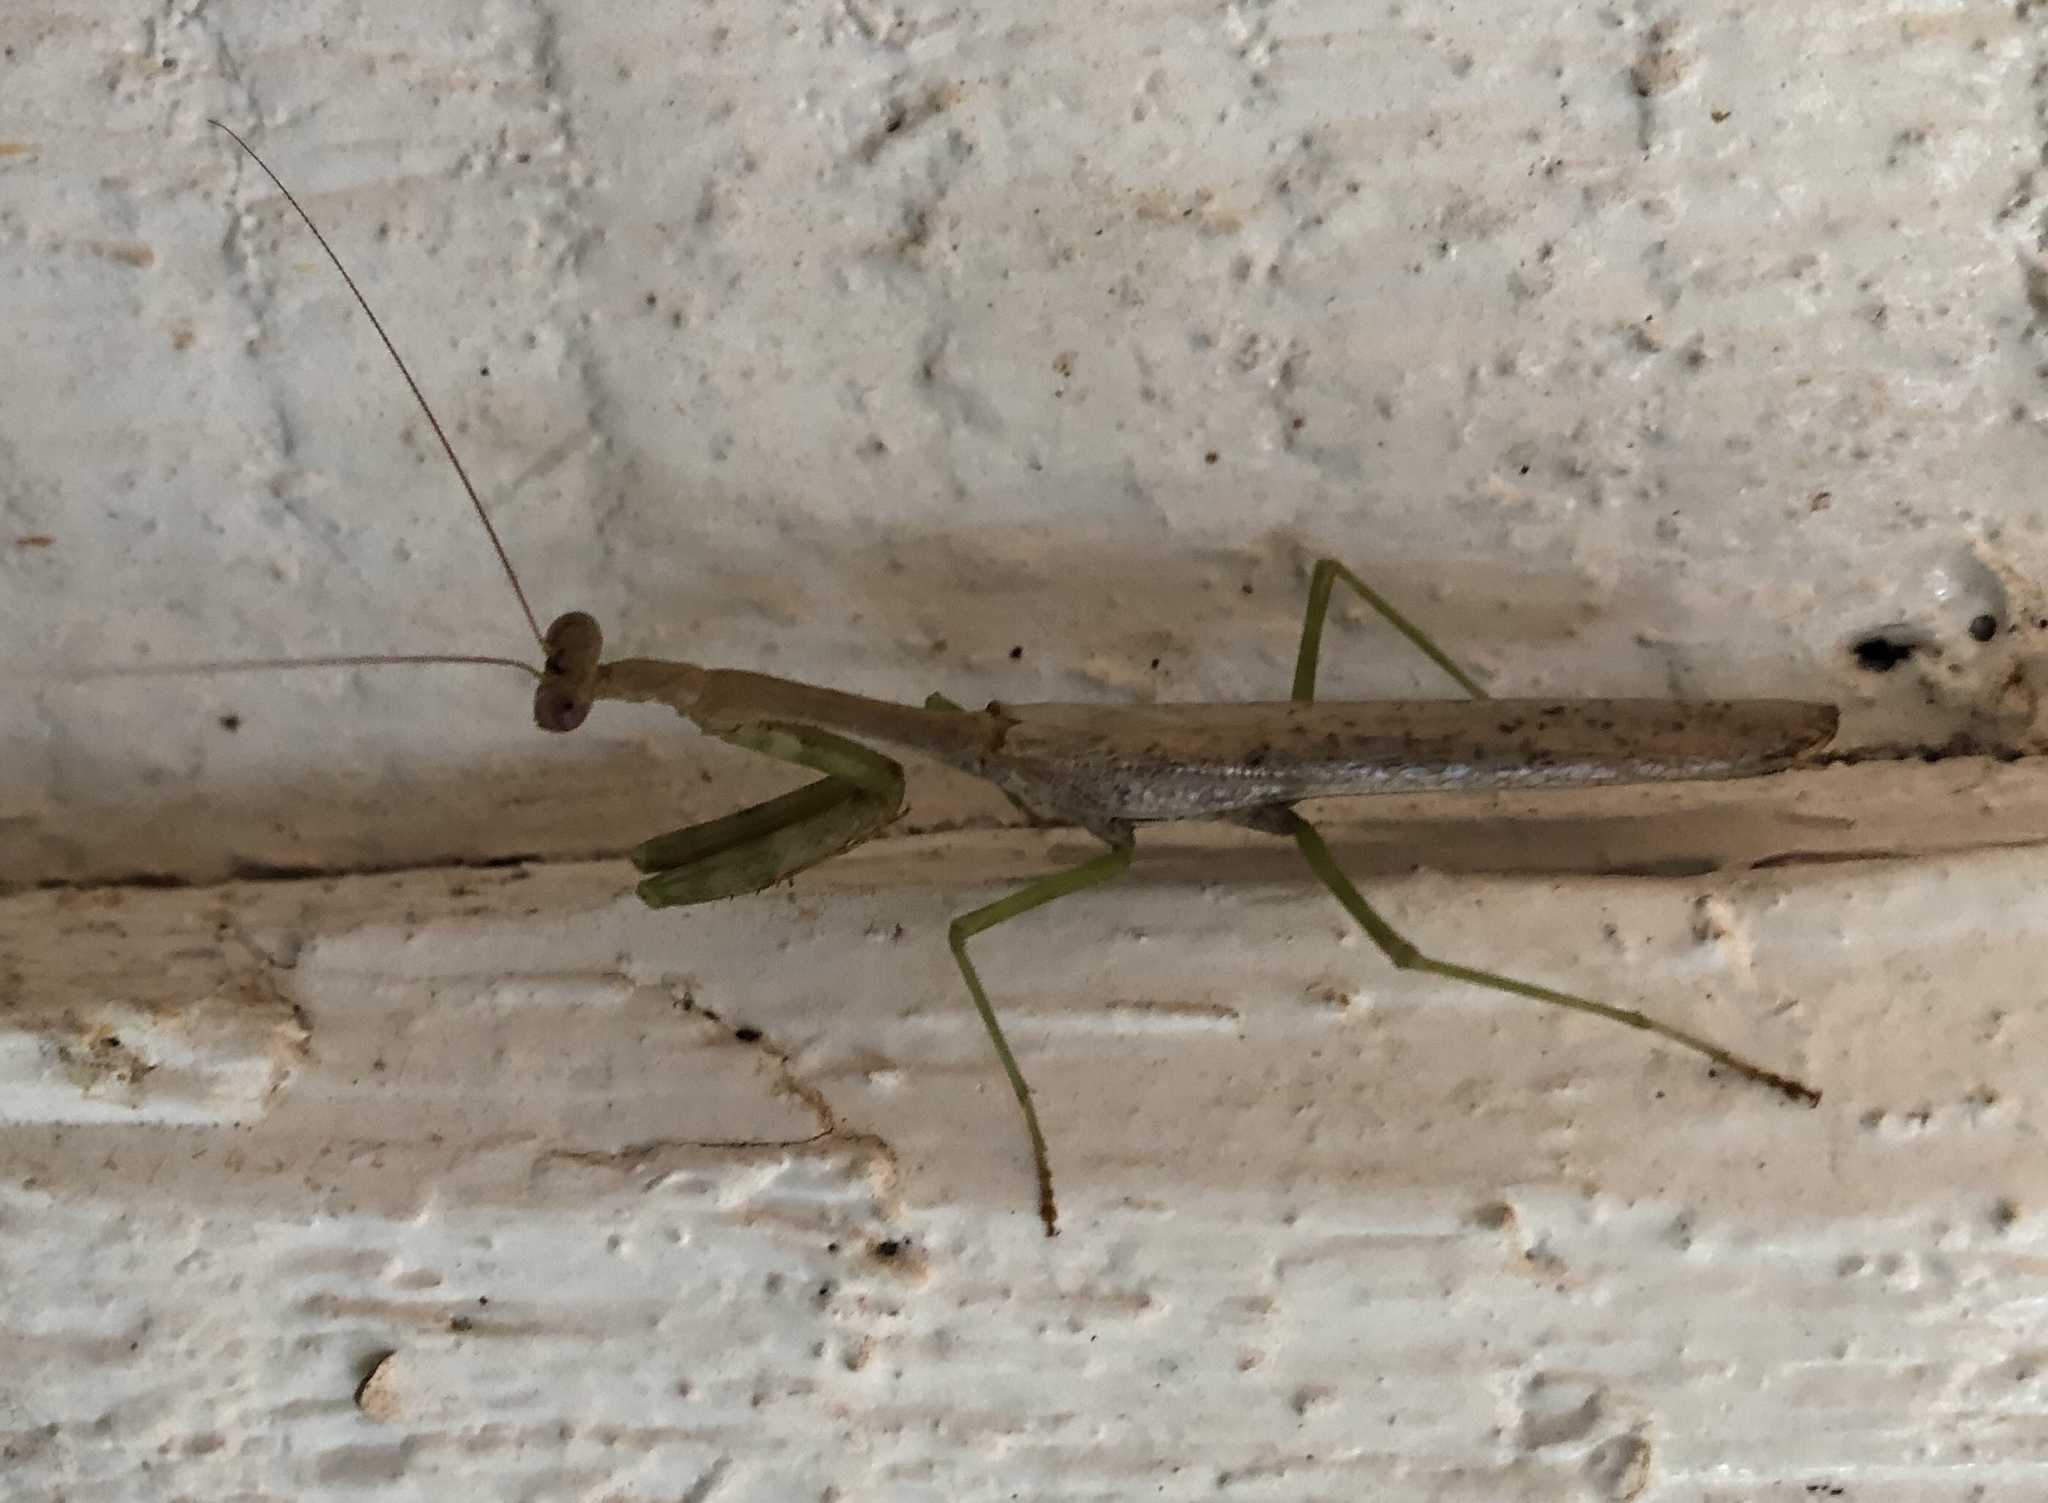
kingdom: Animalia
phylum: Arthropoda
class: Insecta
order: Mantodea
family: Mantidae
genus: Stagmomantis
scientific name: Stagmomantis carolina
